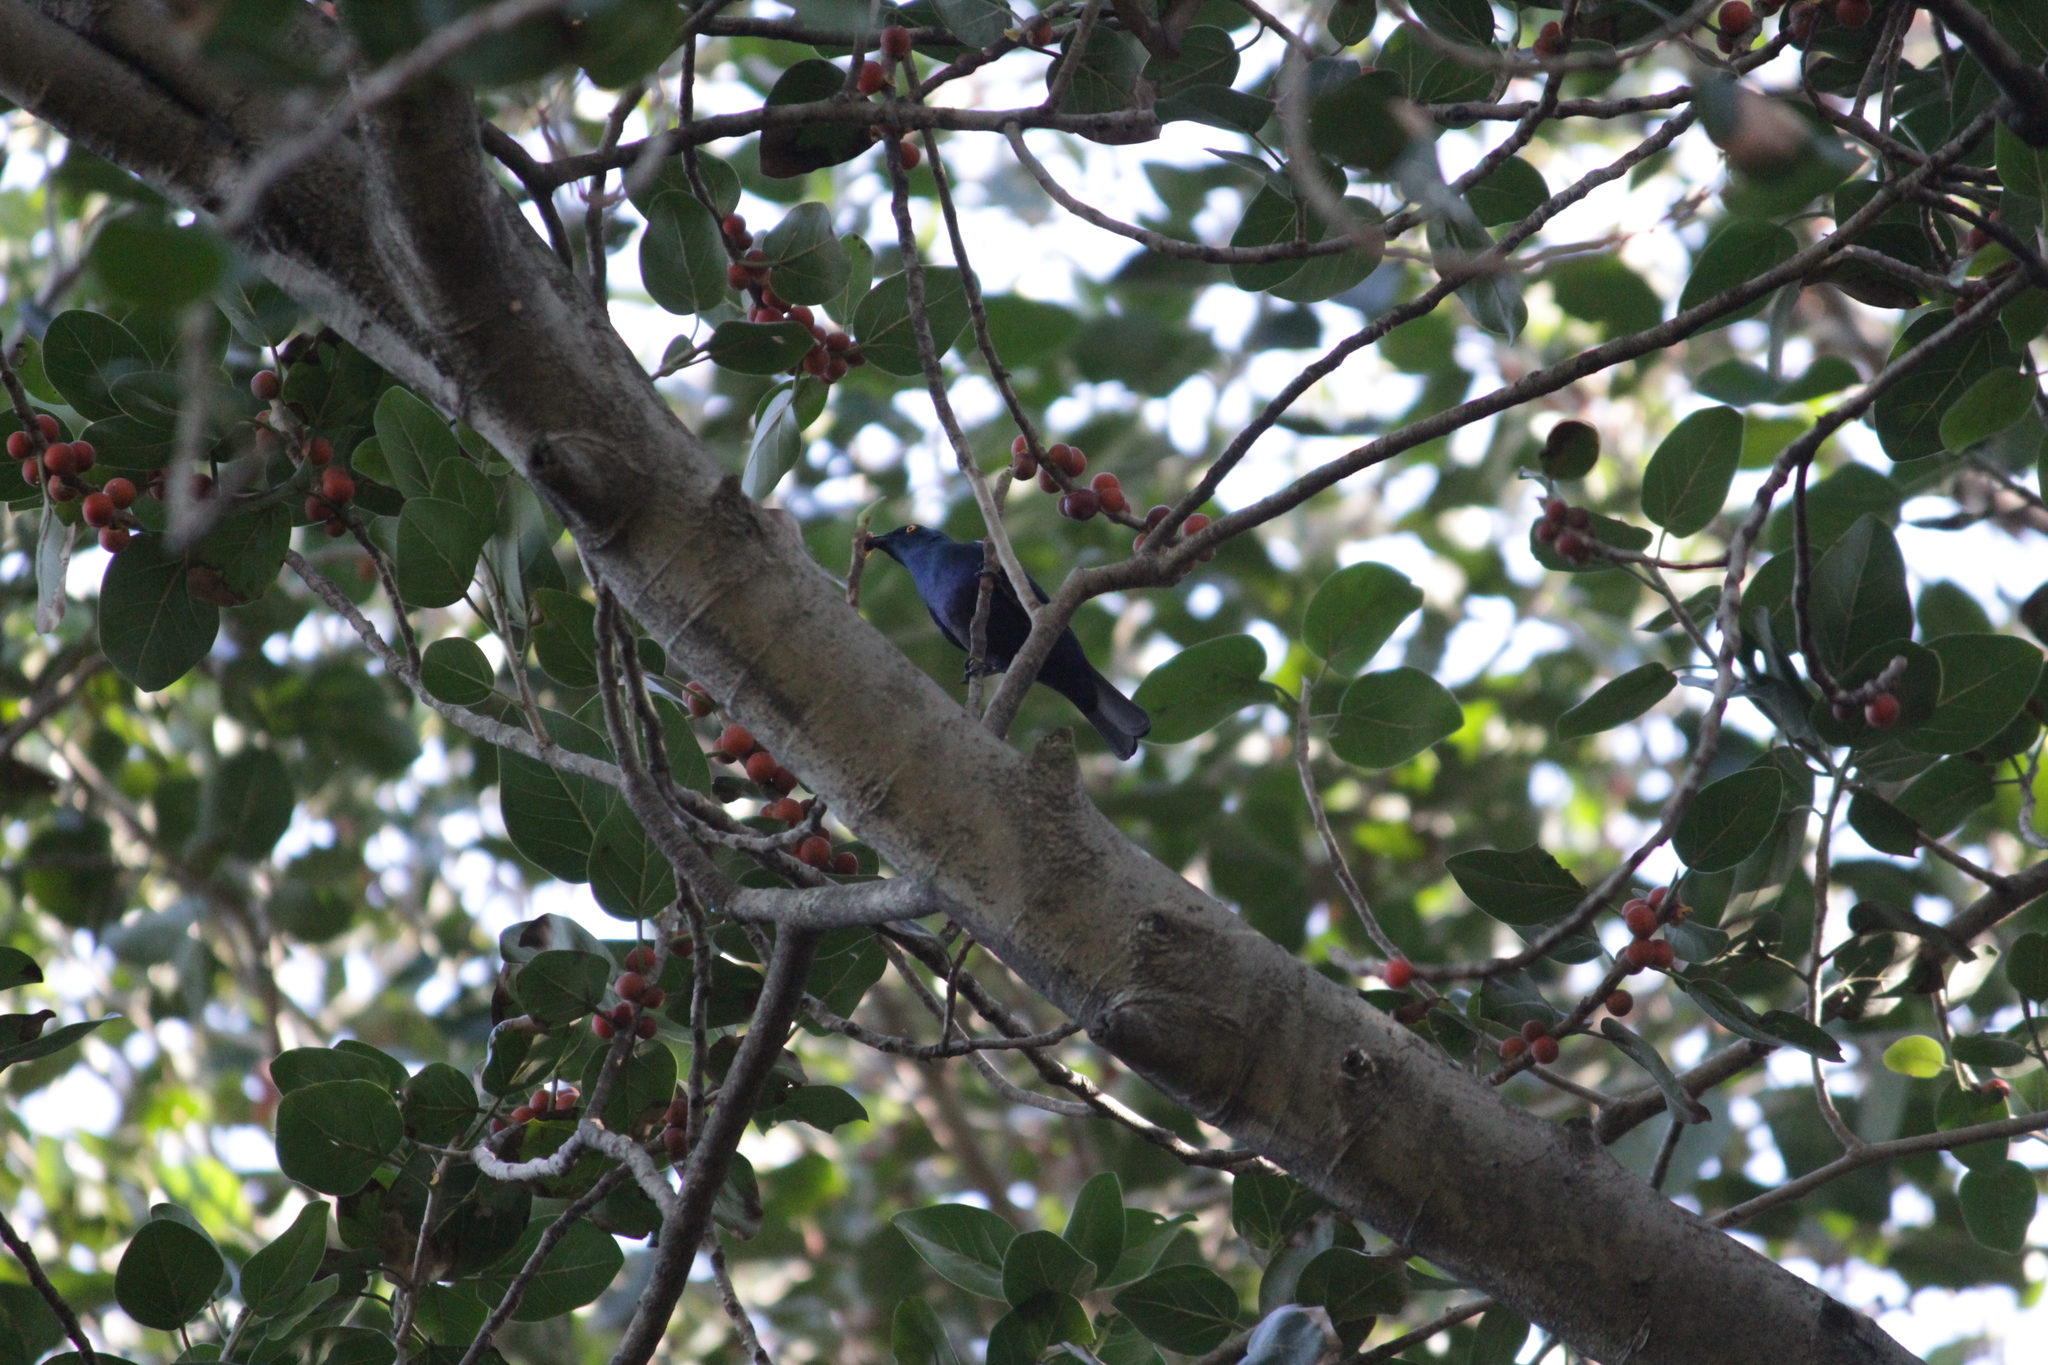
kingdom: Animalia
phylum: Chordata
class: Aves
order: Passeriformes
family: Sturnidae
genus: Notopholia
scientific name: Notopholia corrusca
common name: Black-bellied starling
